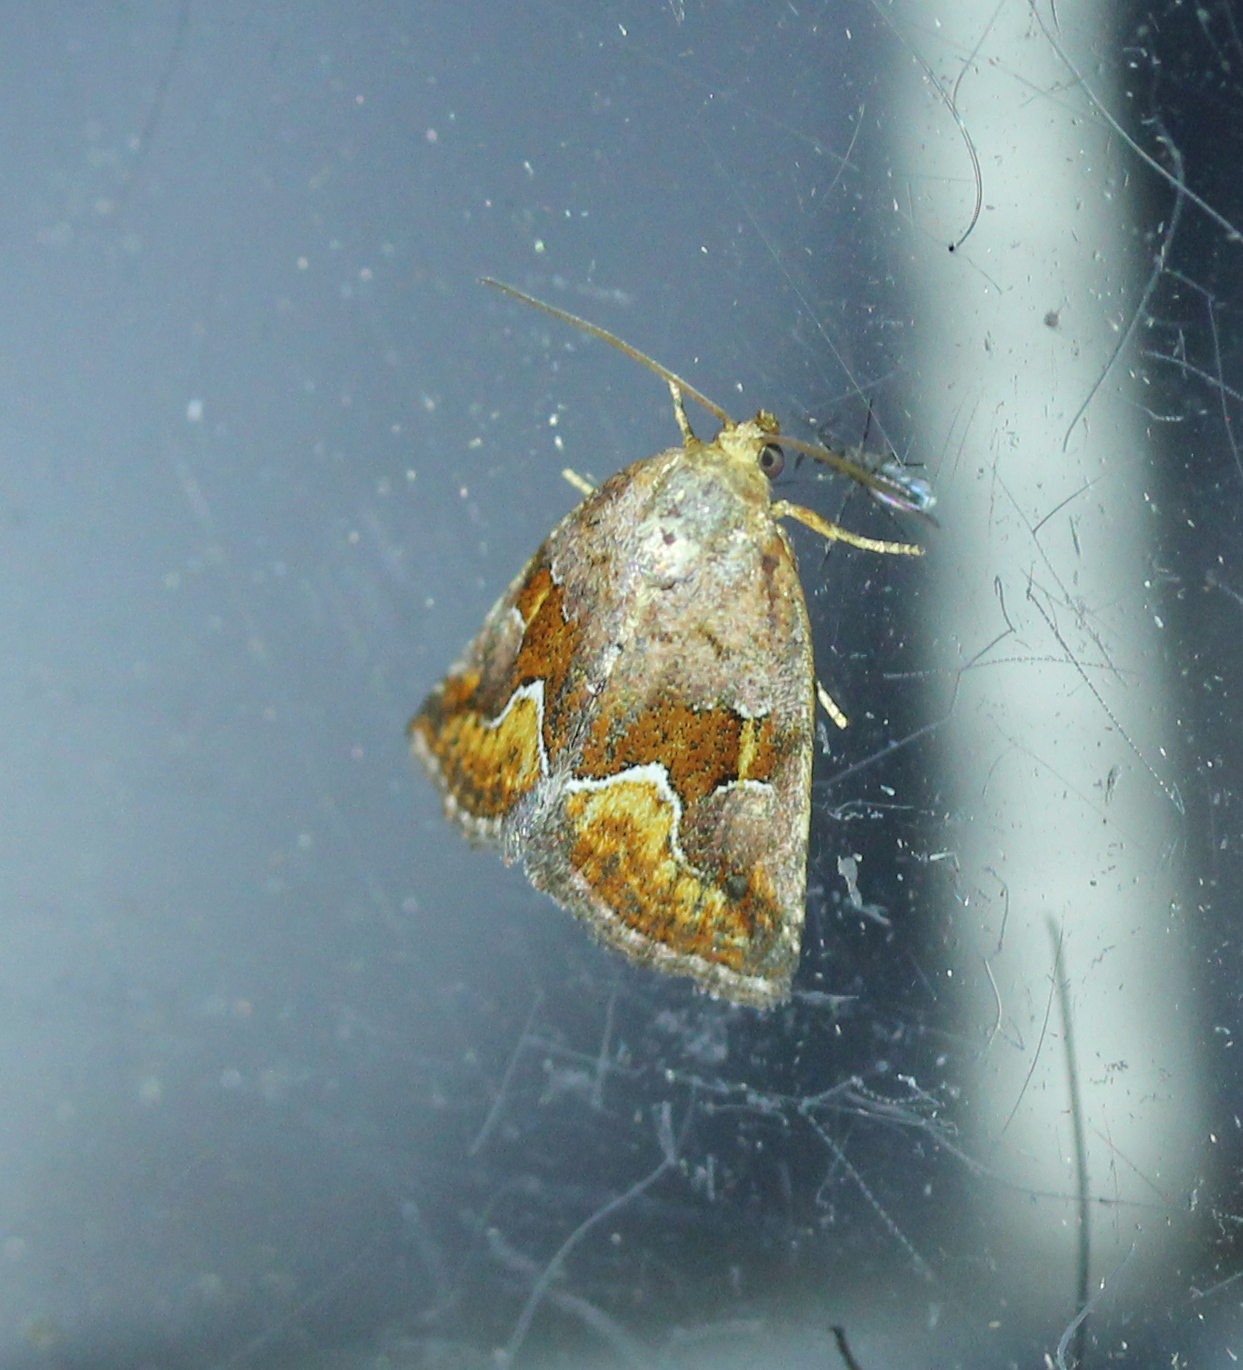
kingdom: Animalia
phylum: Arthropoda
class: Insecta
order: Lepidoptera
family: Noctuidae
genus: Deltote
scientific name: Deltote bellicula
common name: Bog glyph
